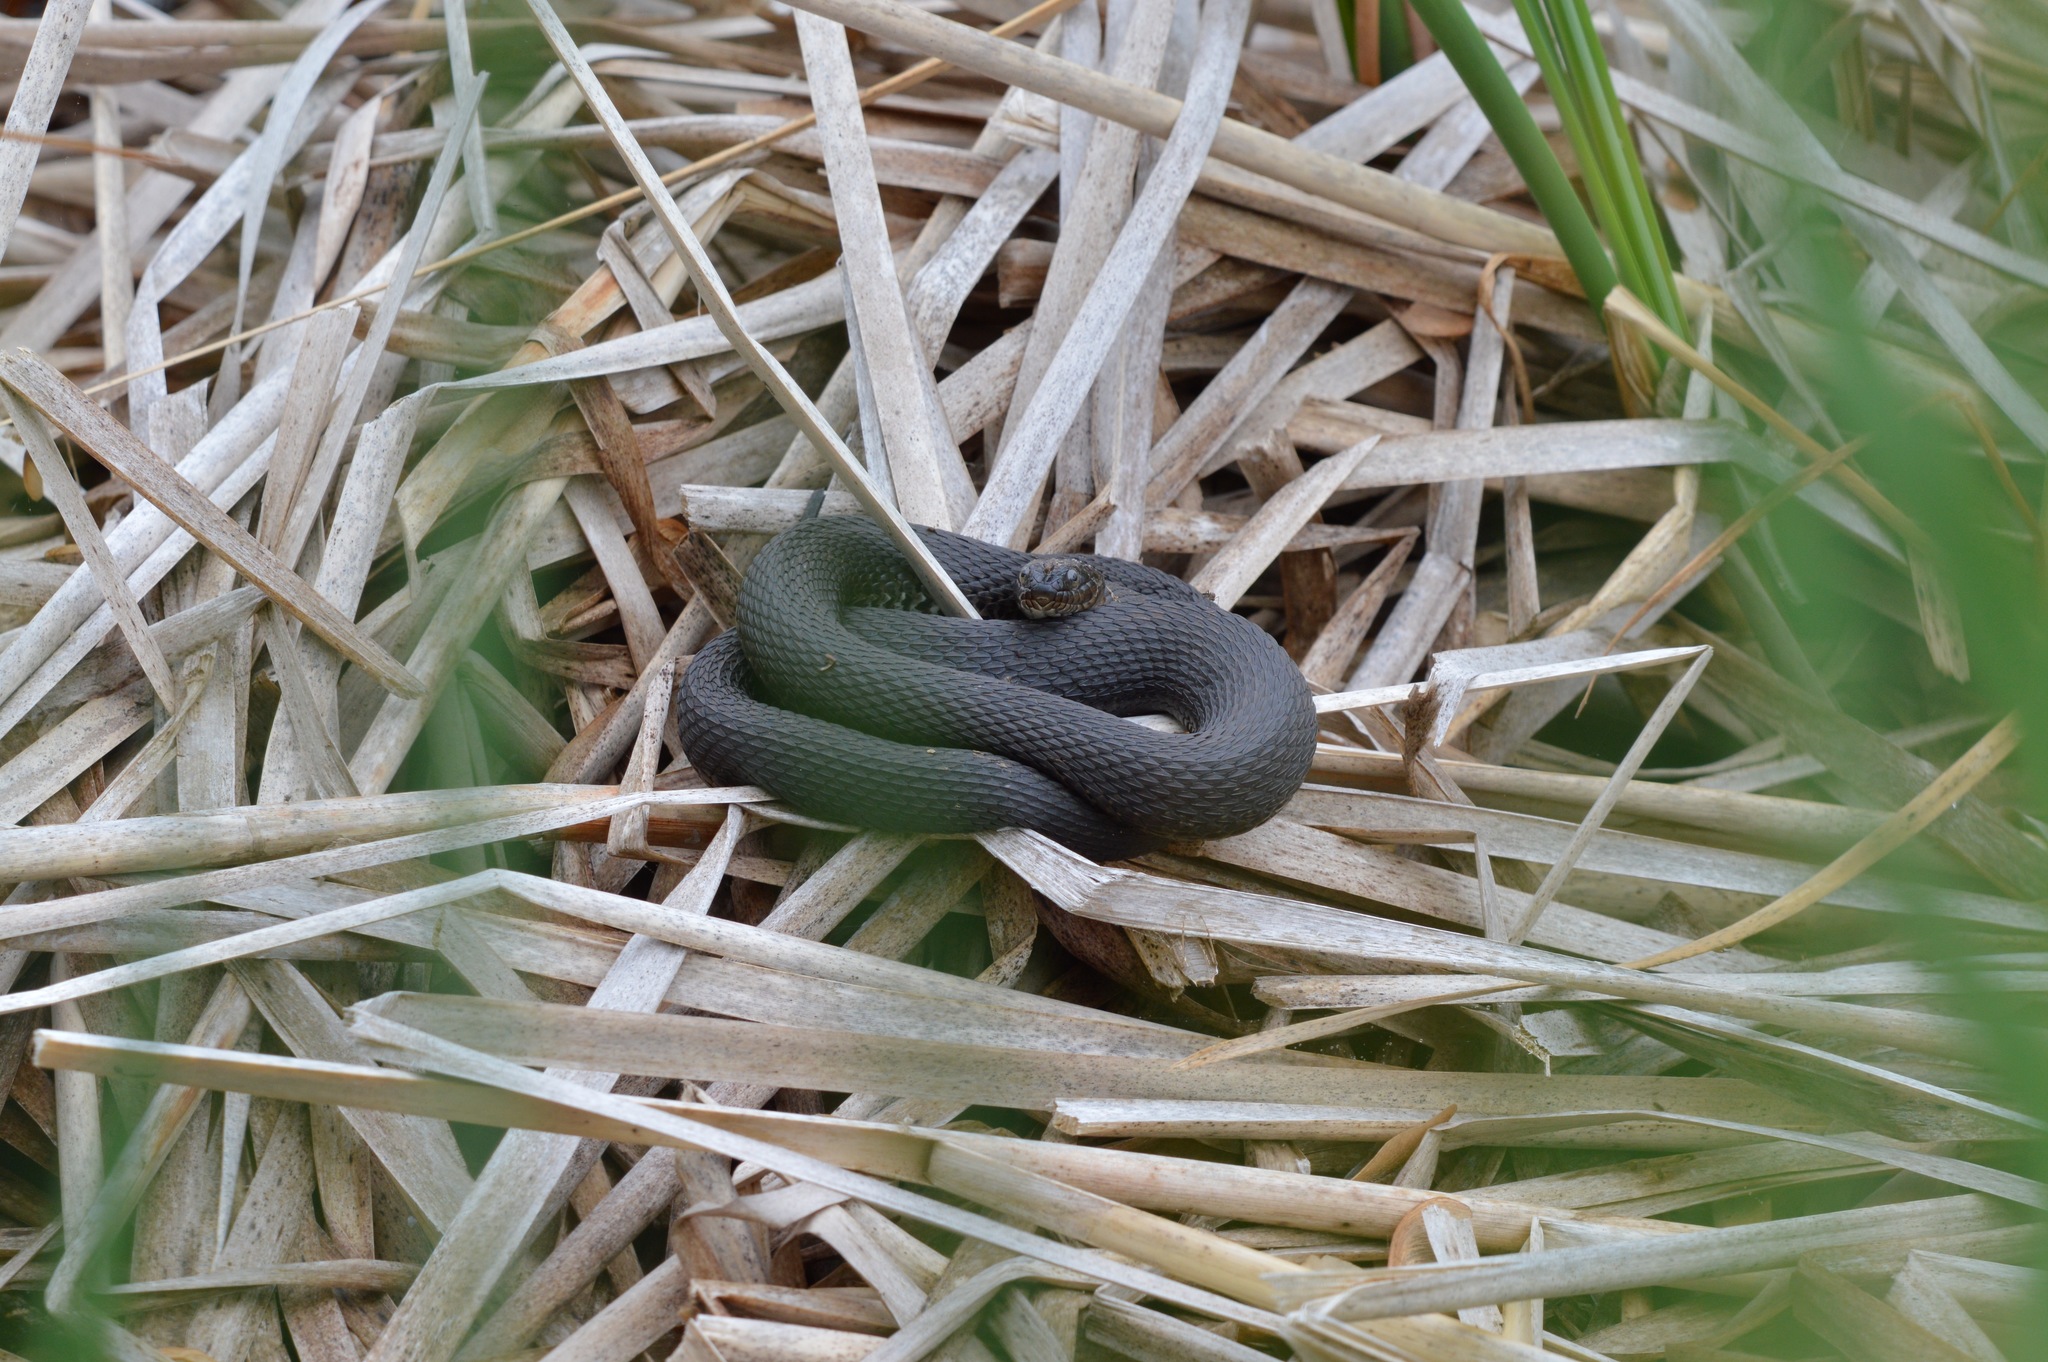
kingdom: Animalia
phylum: Chordata
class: Squamata
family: Colubridae
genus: Nerodia
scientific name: Nerodia sipedon
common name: Northern water snake
